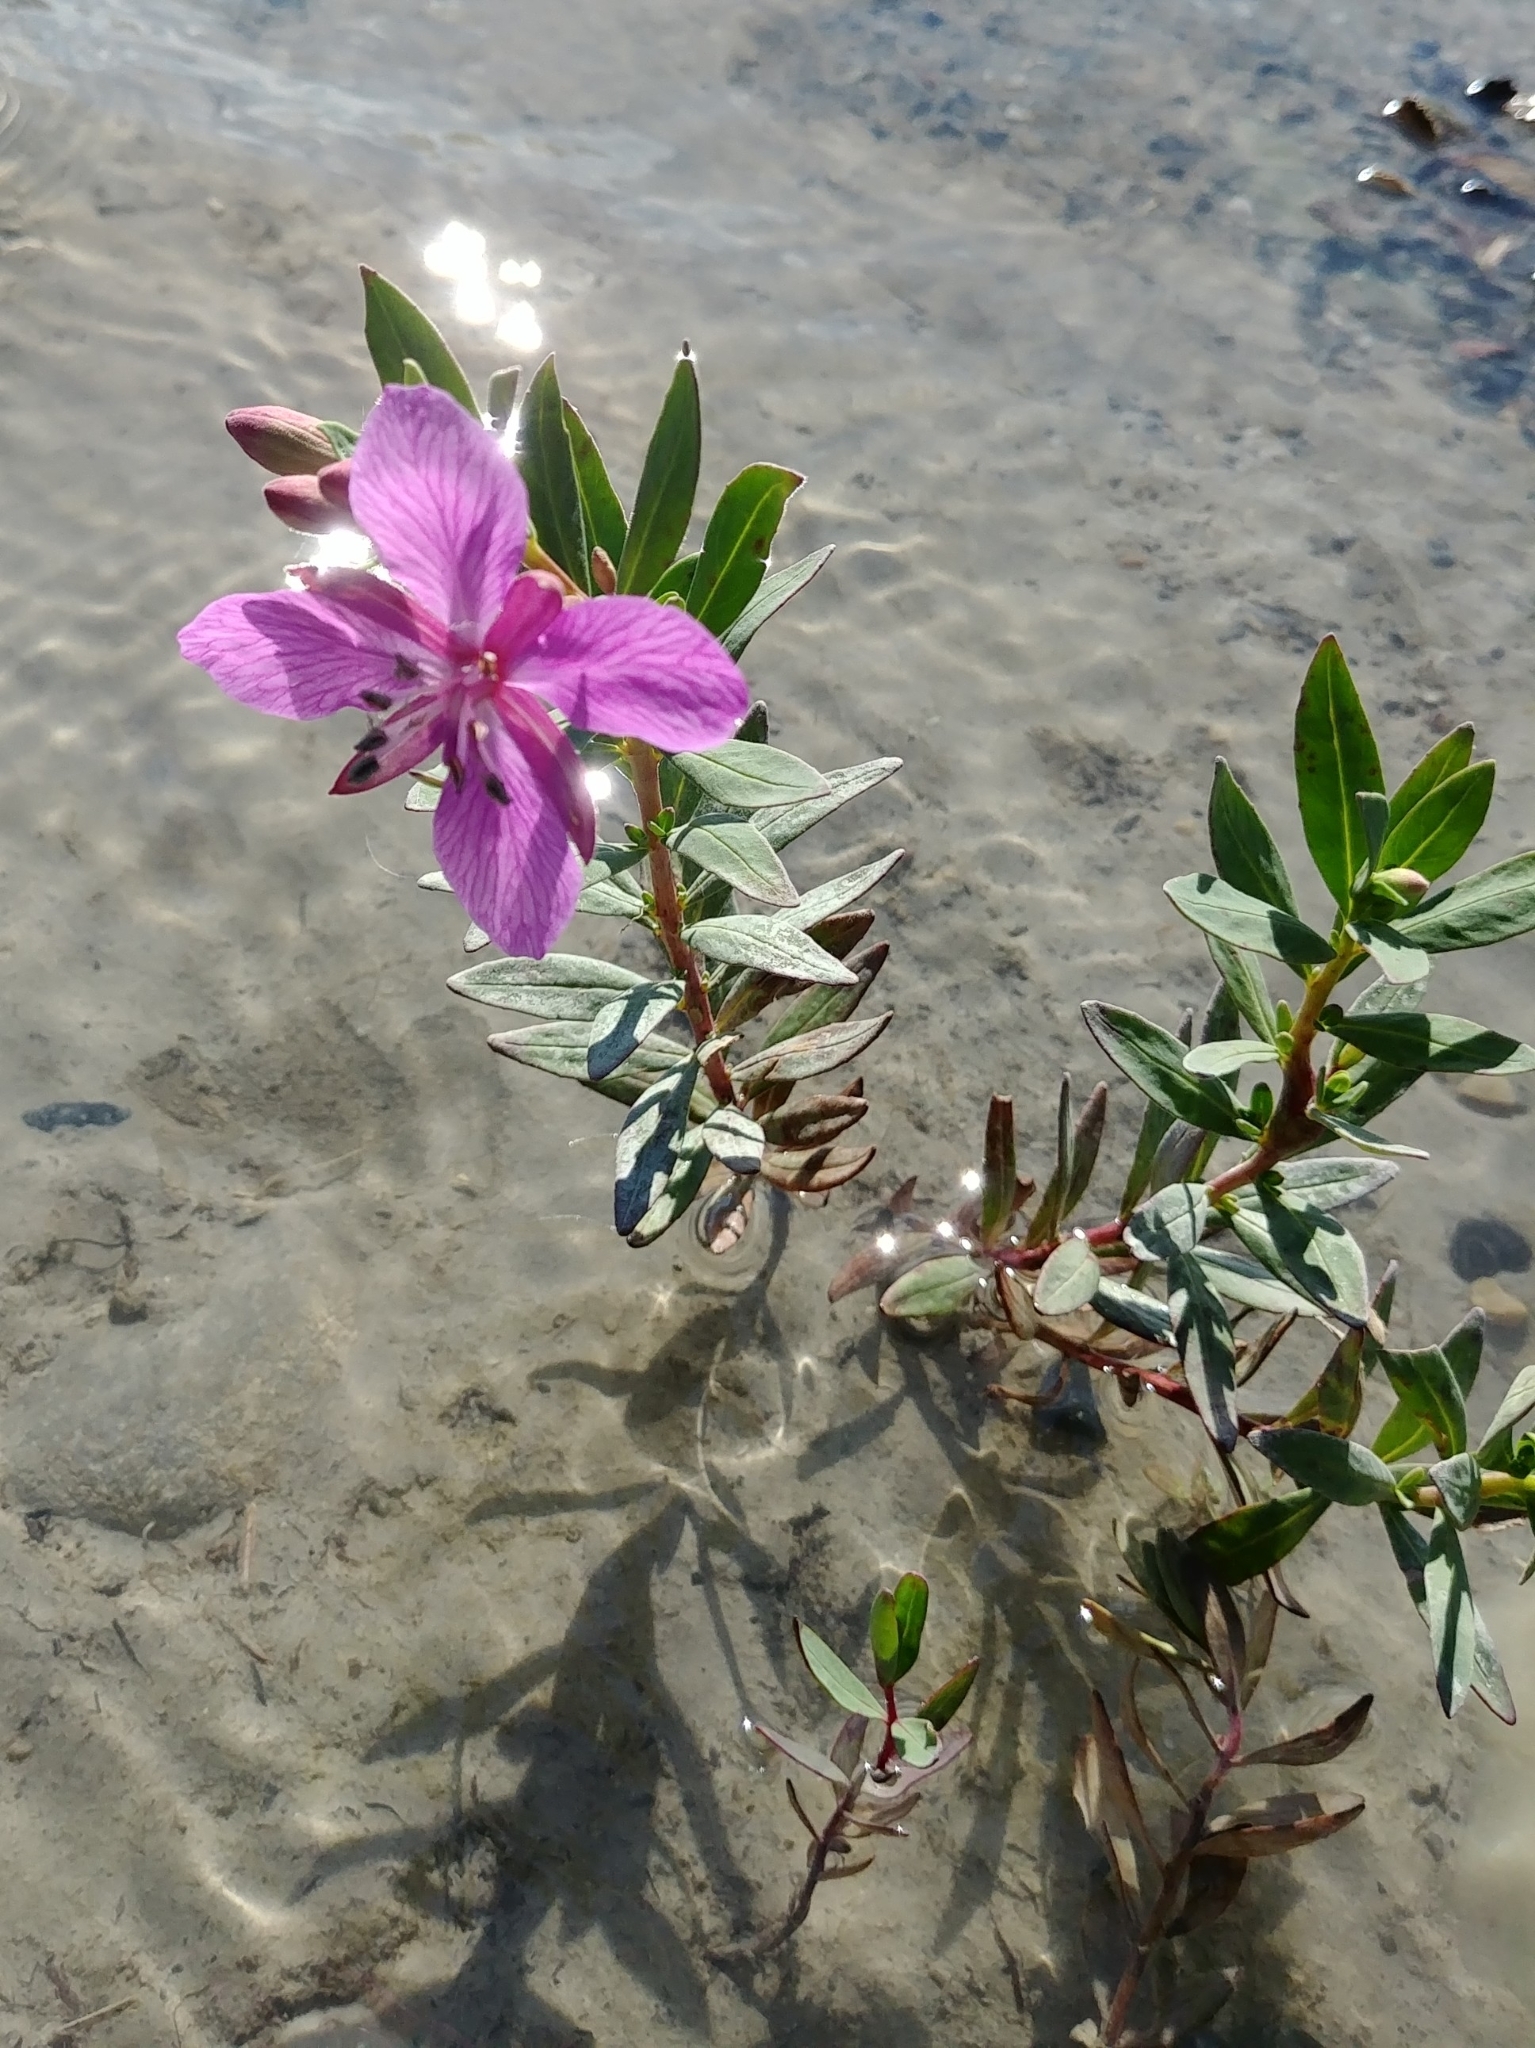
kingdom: Plantae
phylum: Tracheophyta
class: Magnoliopsida
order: Myrtales
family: Onagraceae
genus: Chamaenerion
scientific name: Chamaenerion latifolium
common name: Dwarf fireweed
